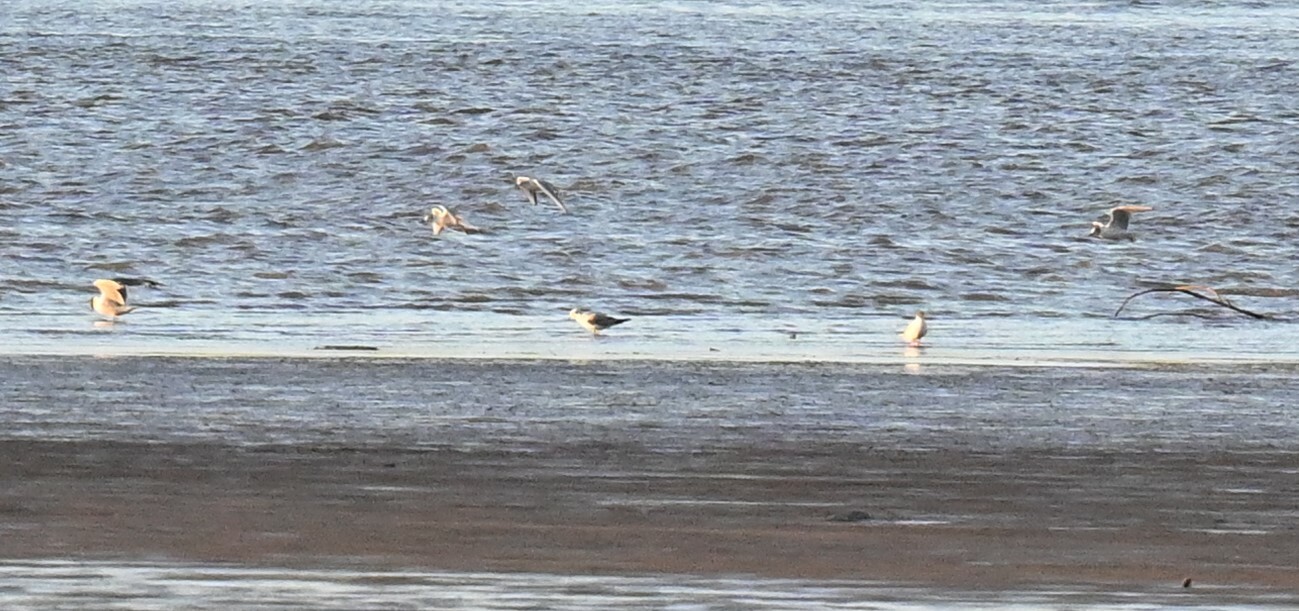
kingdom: Animalia
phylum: Chordata
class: Aves
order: Charadriiformes
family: Laridae
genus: Chroicocephalus
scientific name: Chroicocephalus philadelphia
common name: Bonaparte's gull
